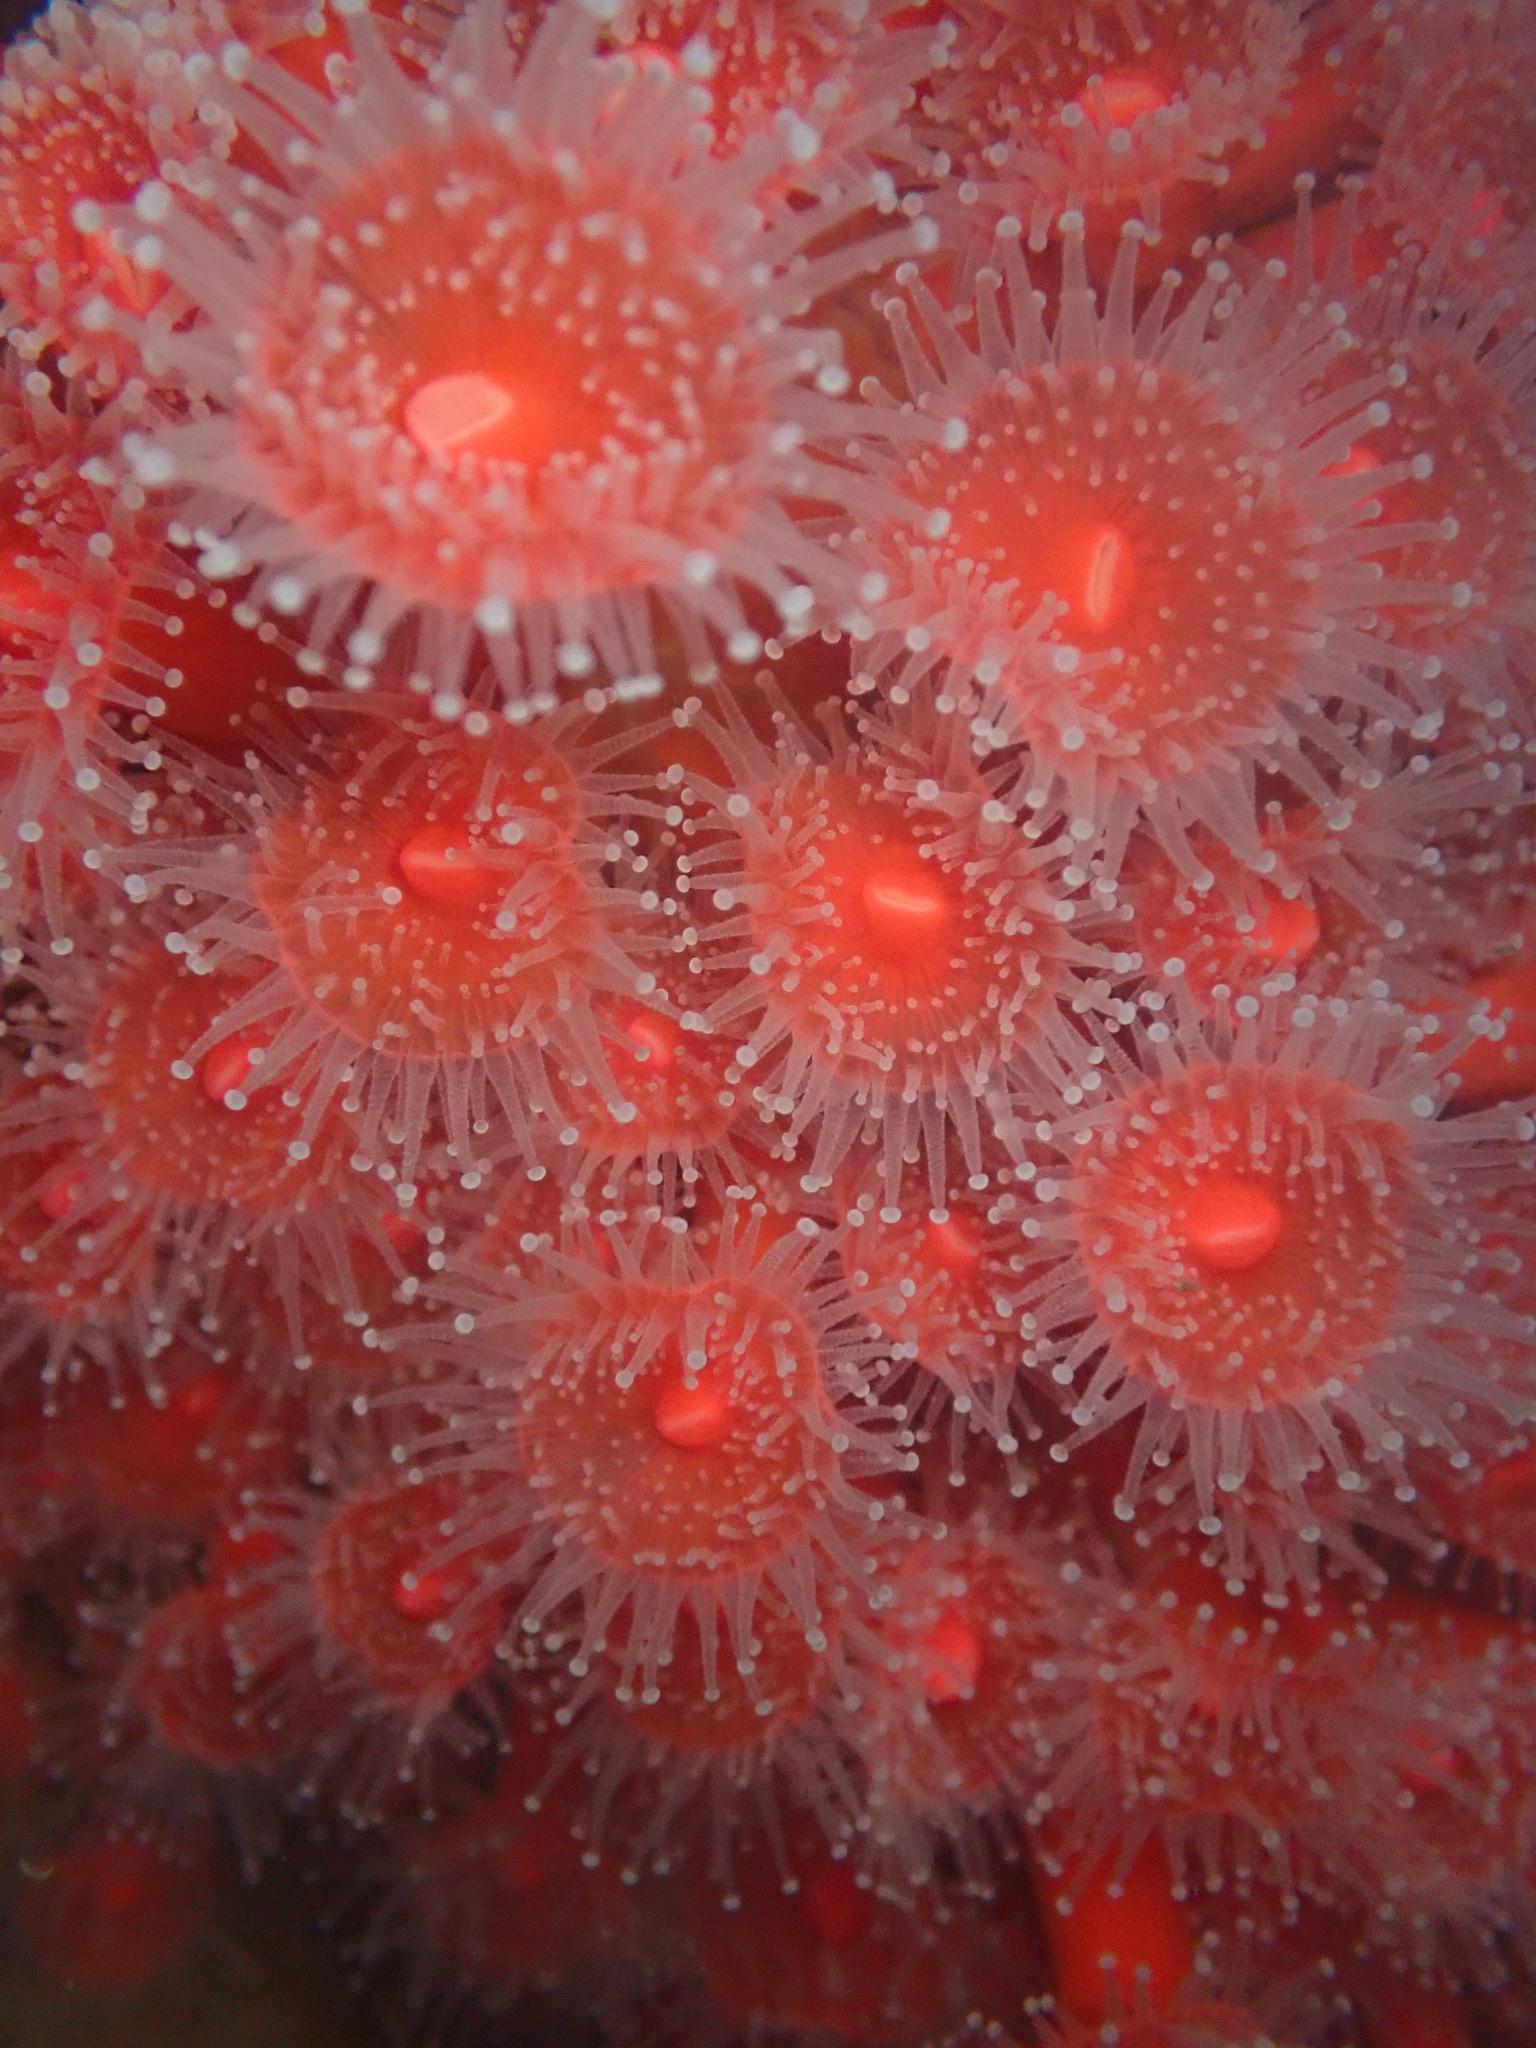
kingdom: Animalia
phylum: Cnidaria
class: Anthozoa
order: Corallimorpharia
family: Corallimorphidae
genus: Corynactis
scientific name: Corynactis californica
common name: Strawberry corallimorpharian
